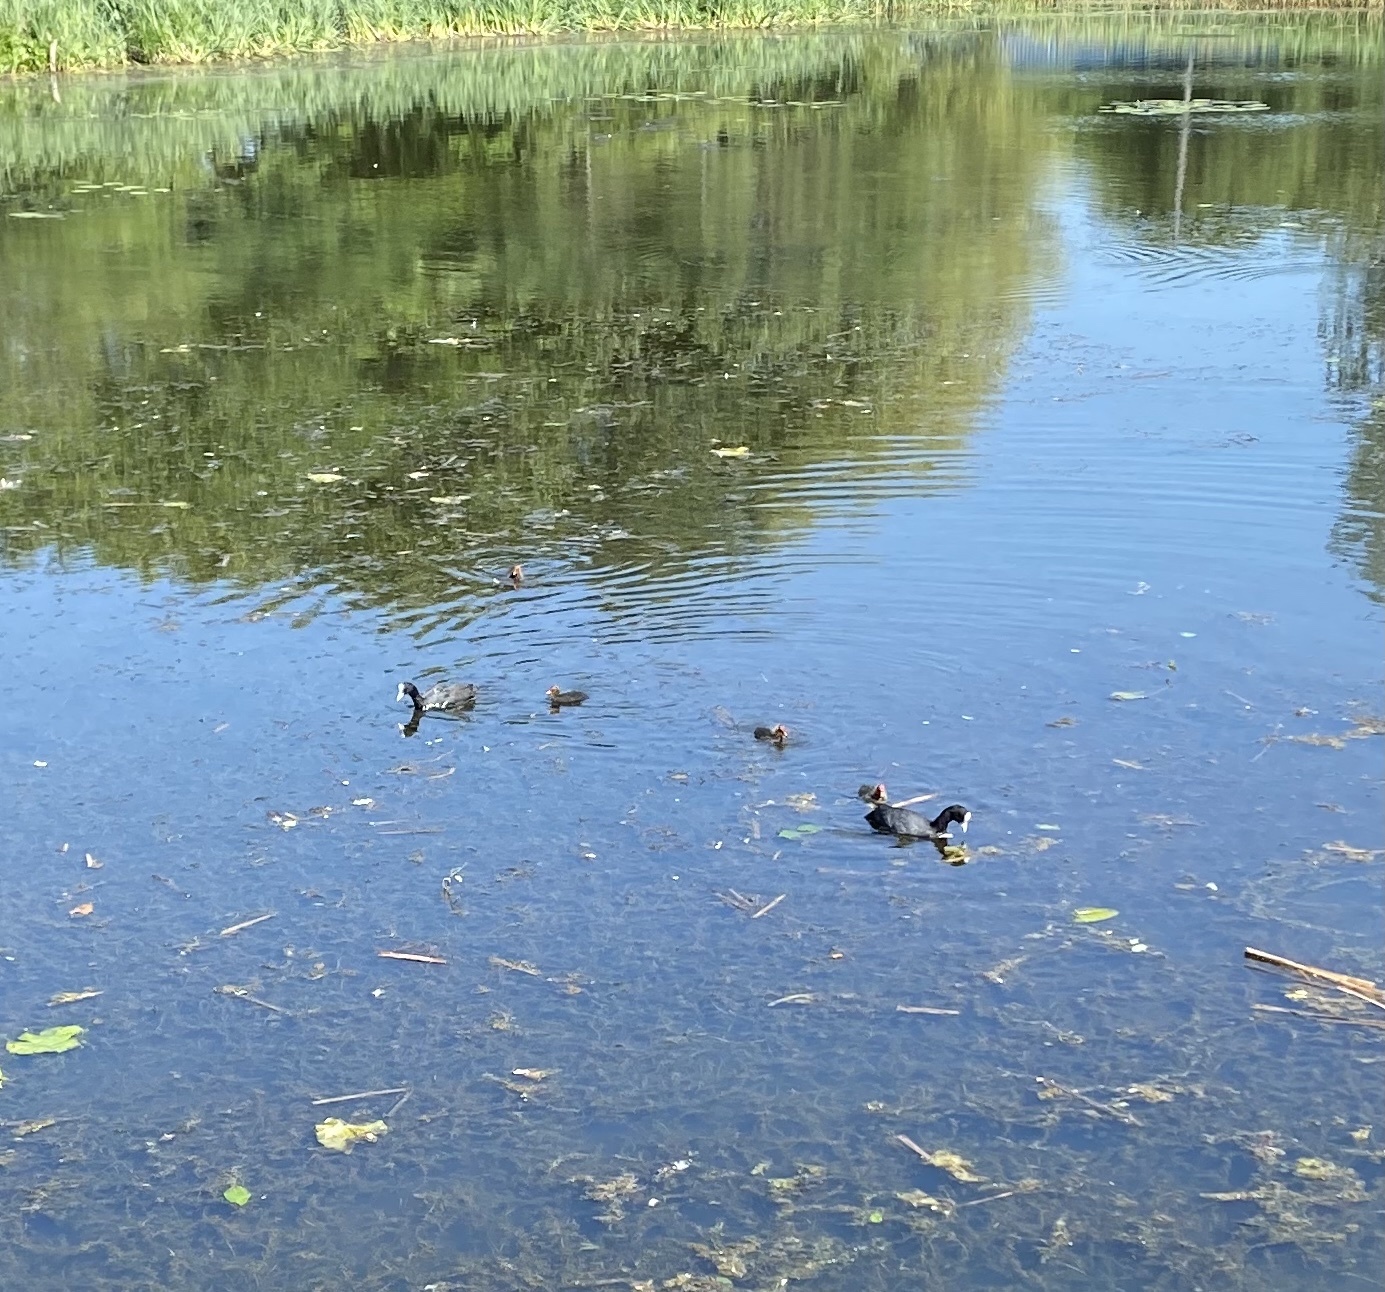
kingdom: Animalia
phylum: Chordata
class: Aves
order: Gruiformes
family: Rallidae
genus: Fulica
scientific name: Fulica atra
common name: Eurasian coot
